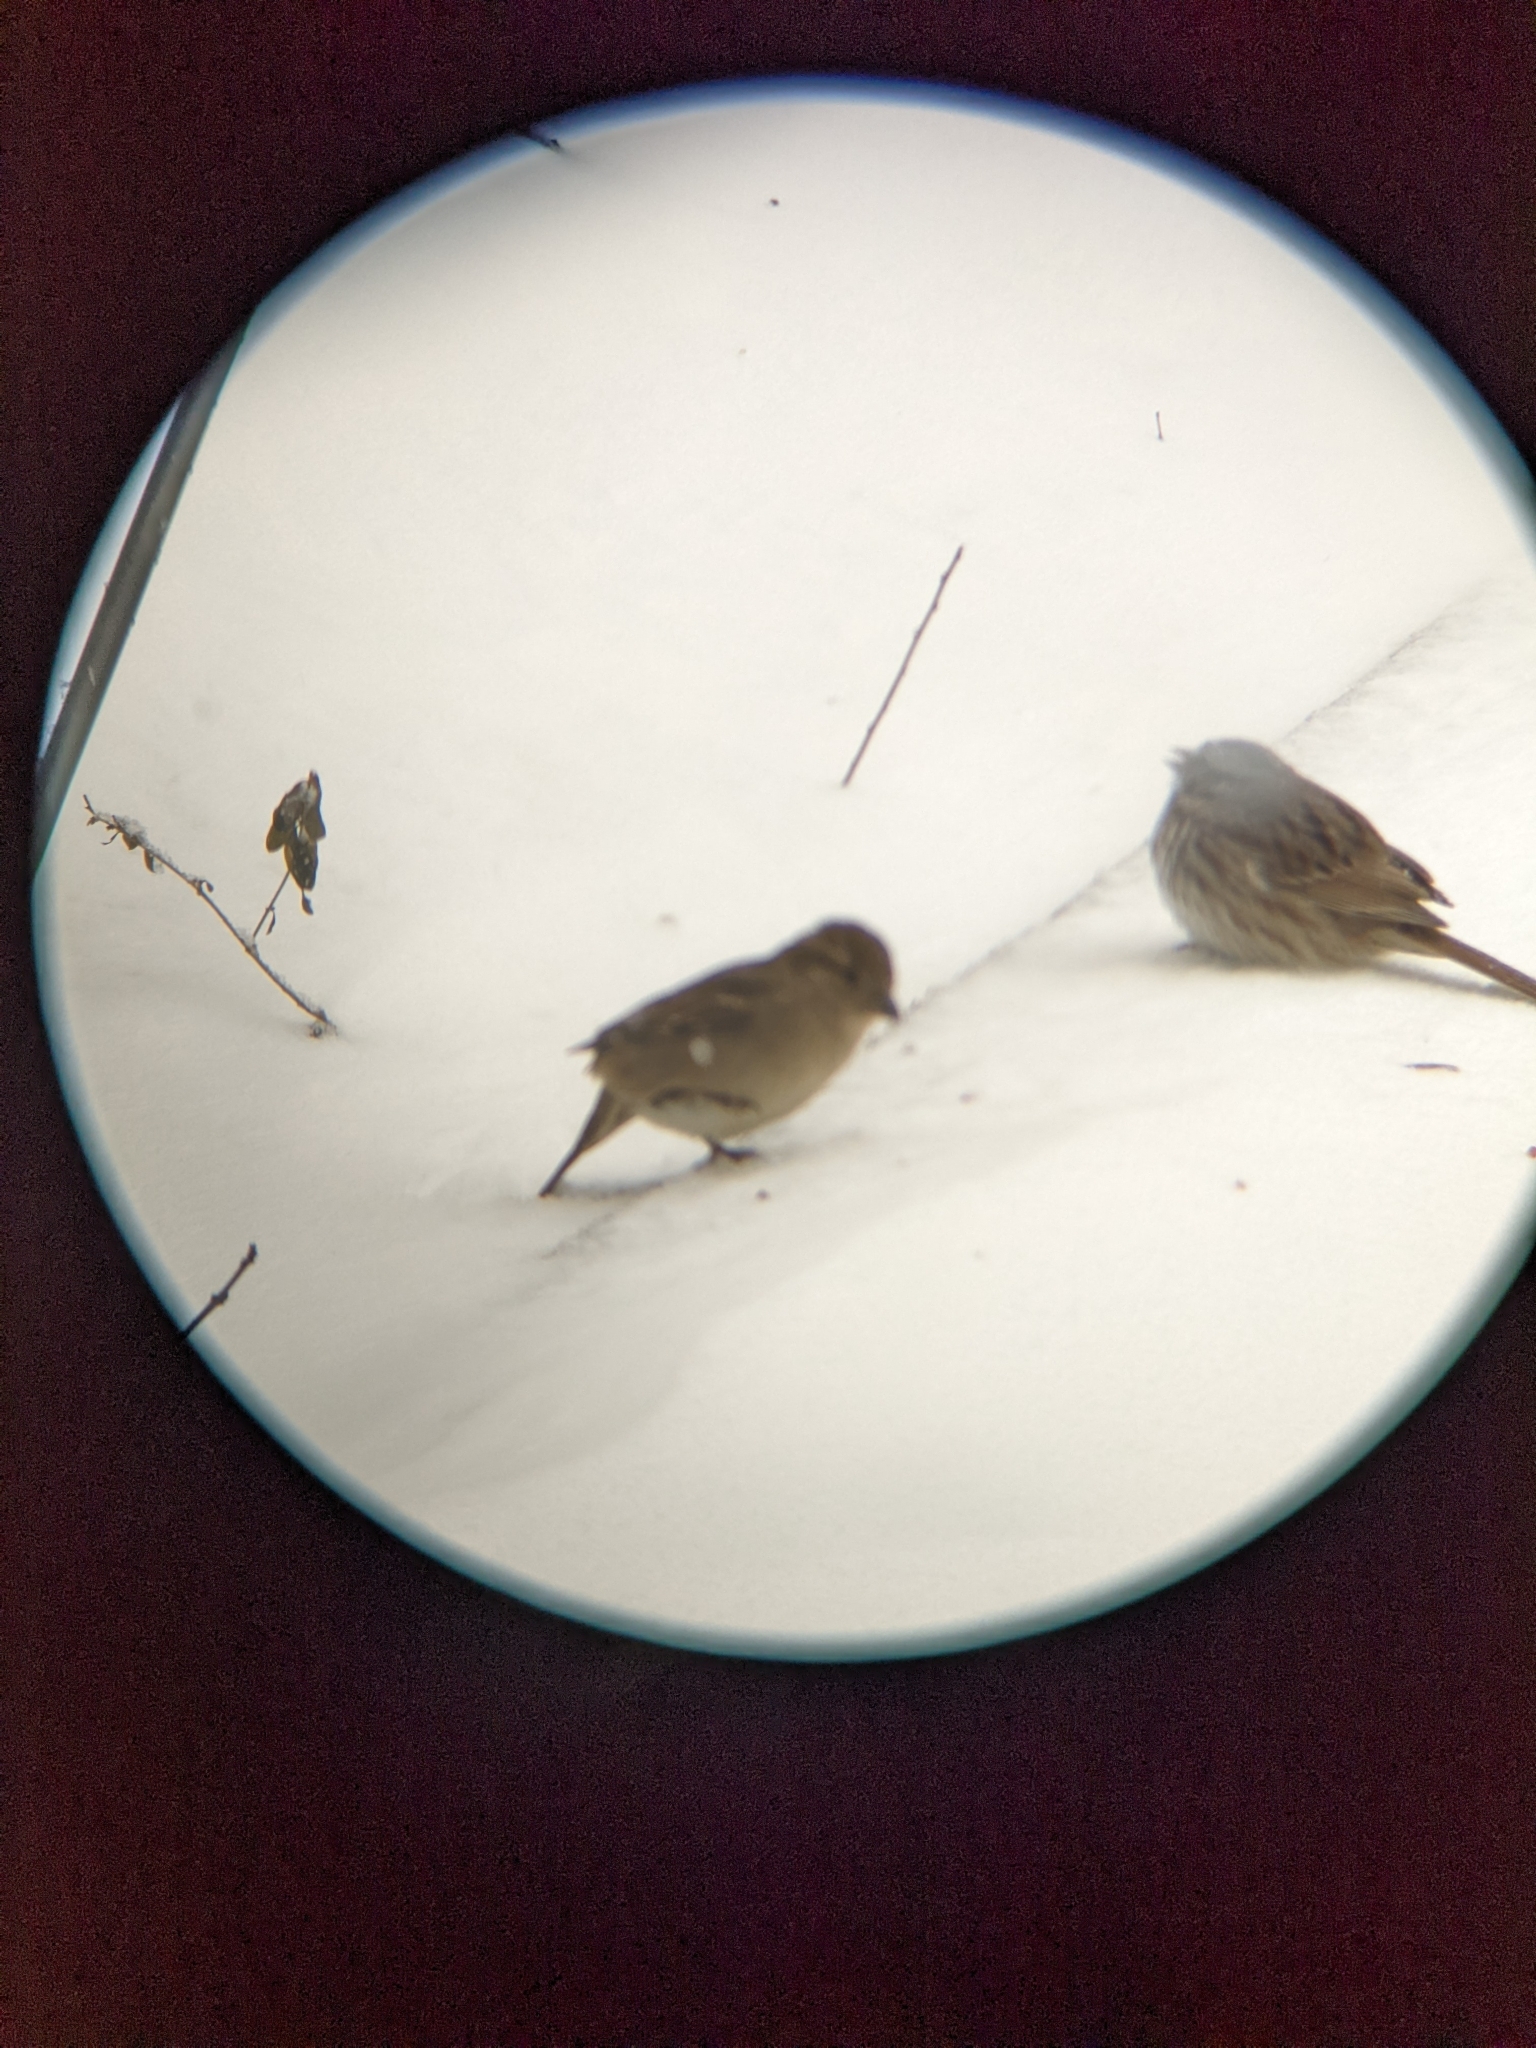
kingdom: Animalia
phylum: Chordata
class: Aves
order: Passeriformes
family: Passeridae
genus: Passer
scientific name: Passer domesticus
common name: House sparrow
